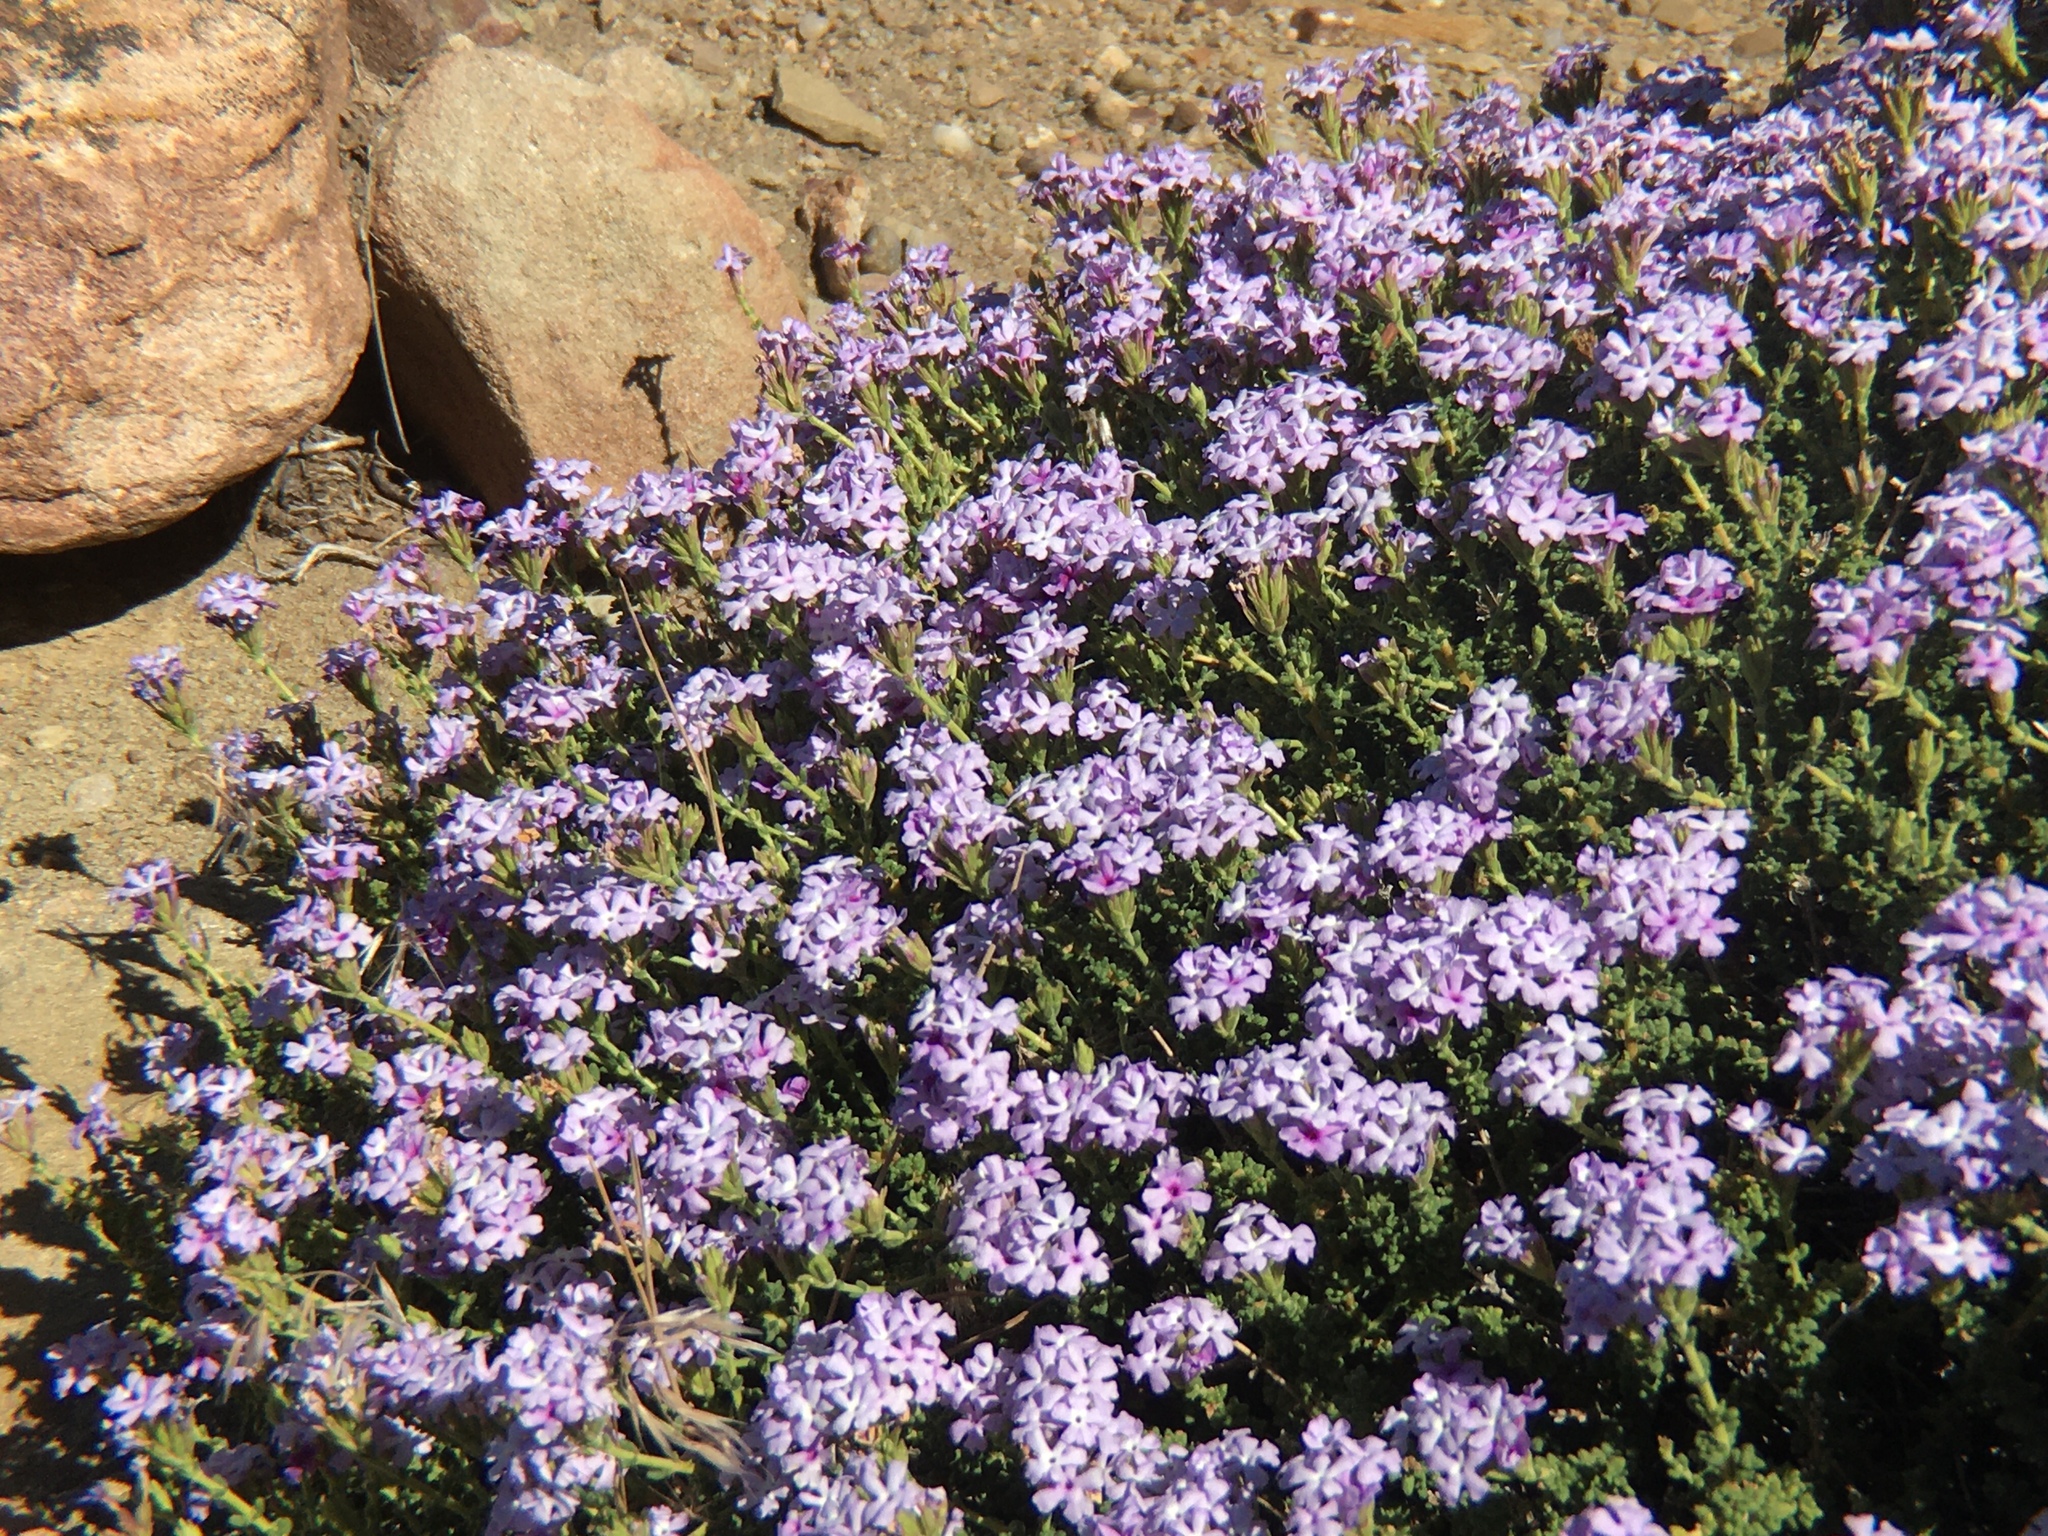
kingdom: Plantae
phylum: Tracheophyta
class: Magnoliopsida
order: Lamiales
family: Verbenaceae
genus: Junellia
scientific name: Junellia thymifolia
